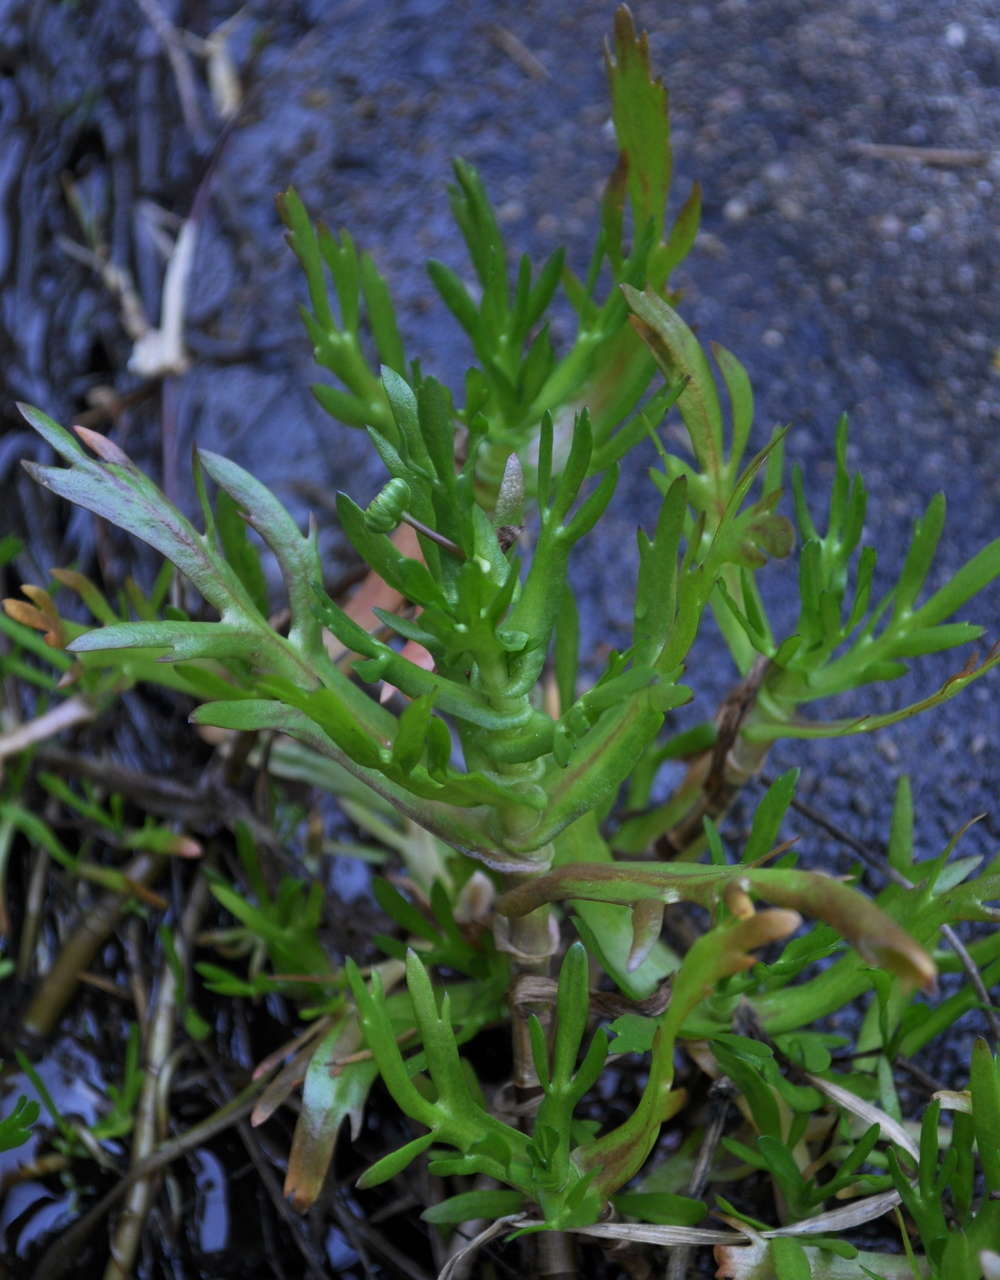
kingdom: Plantae
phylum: Tracheophyta
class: Magnoliopsida
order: Asterales
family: Asteraceae
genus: Cotula
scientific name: Cotula coronopifolia
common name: Buttonweed
